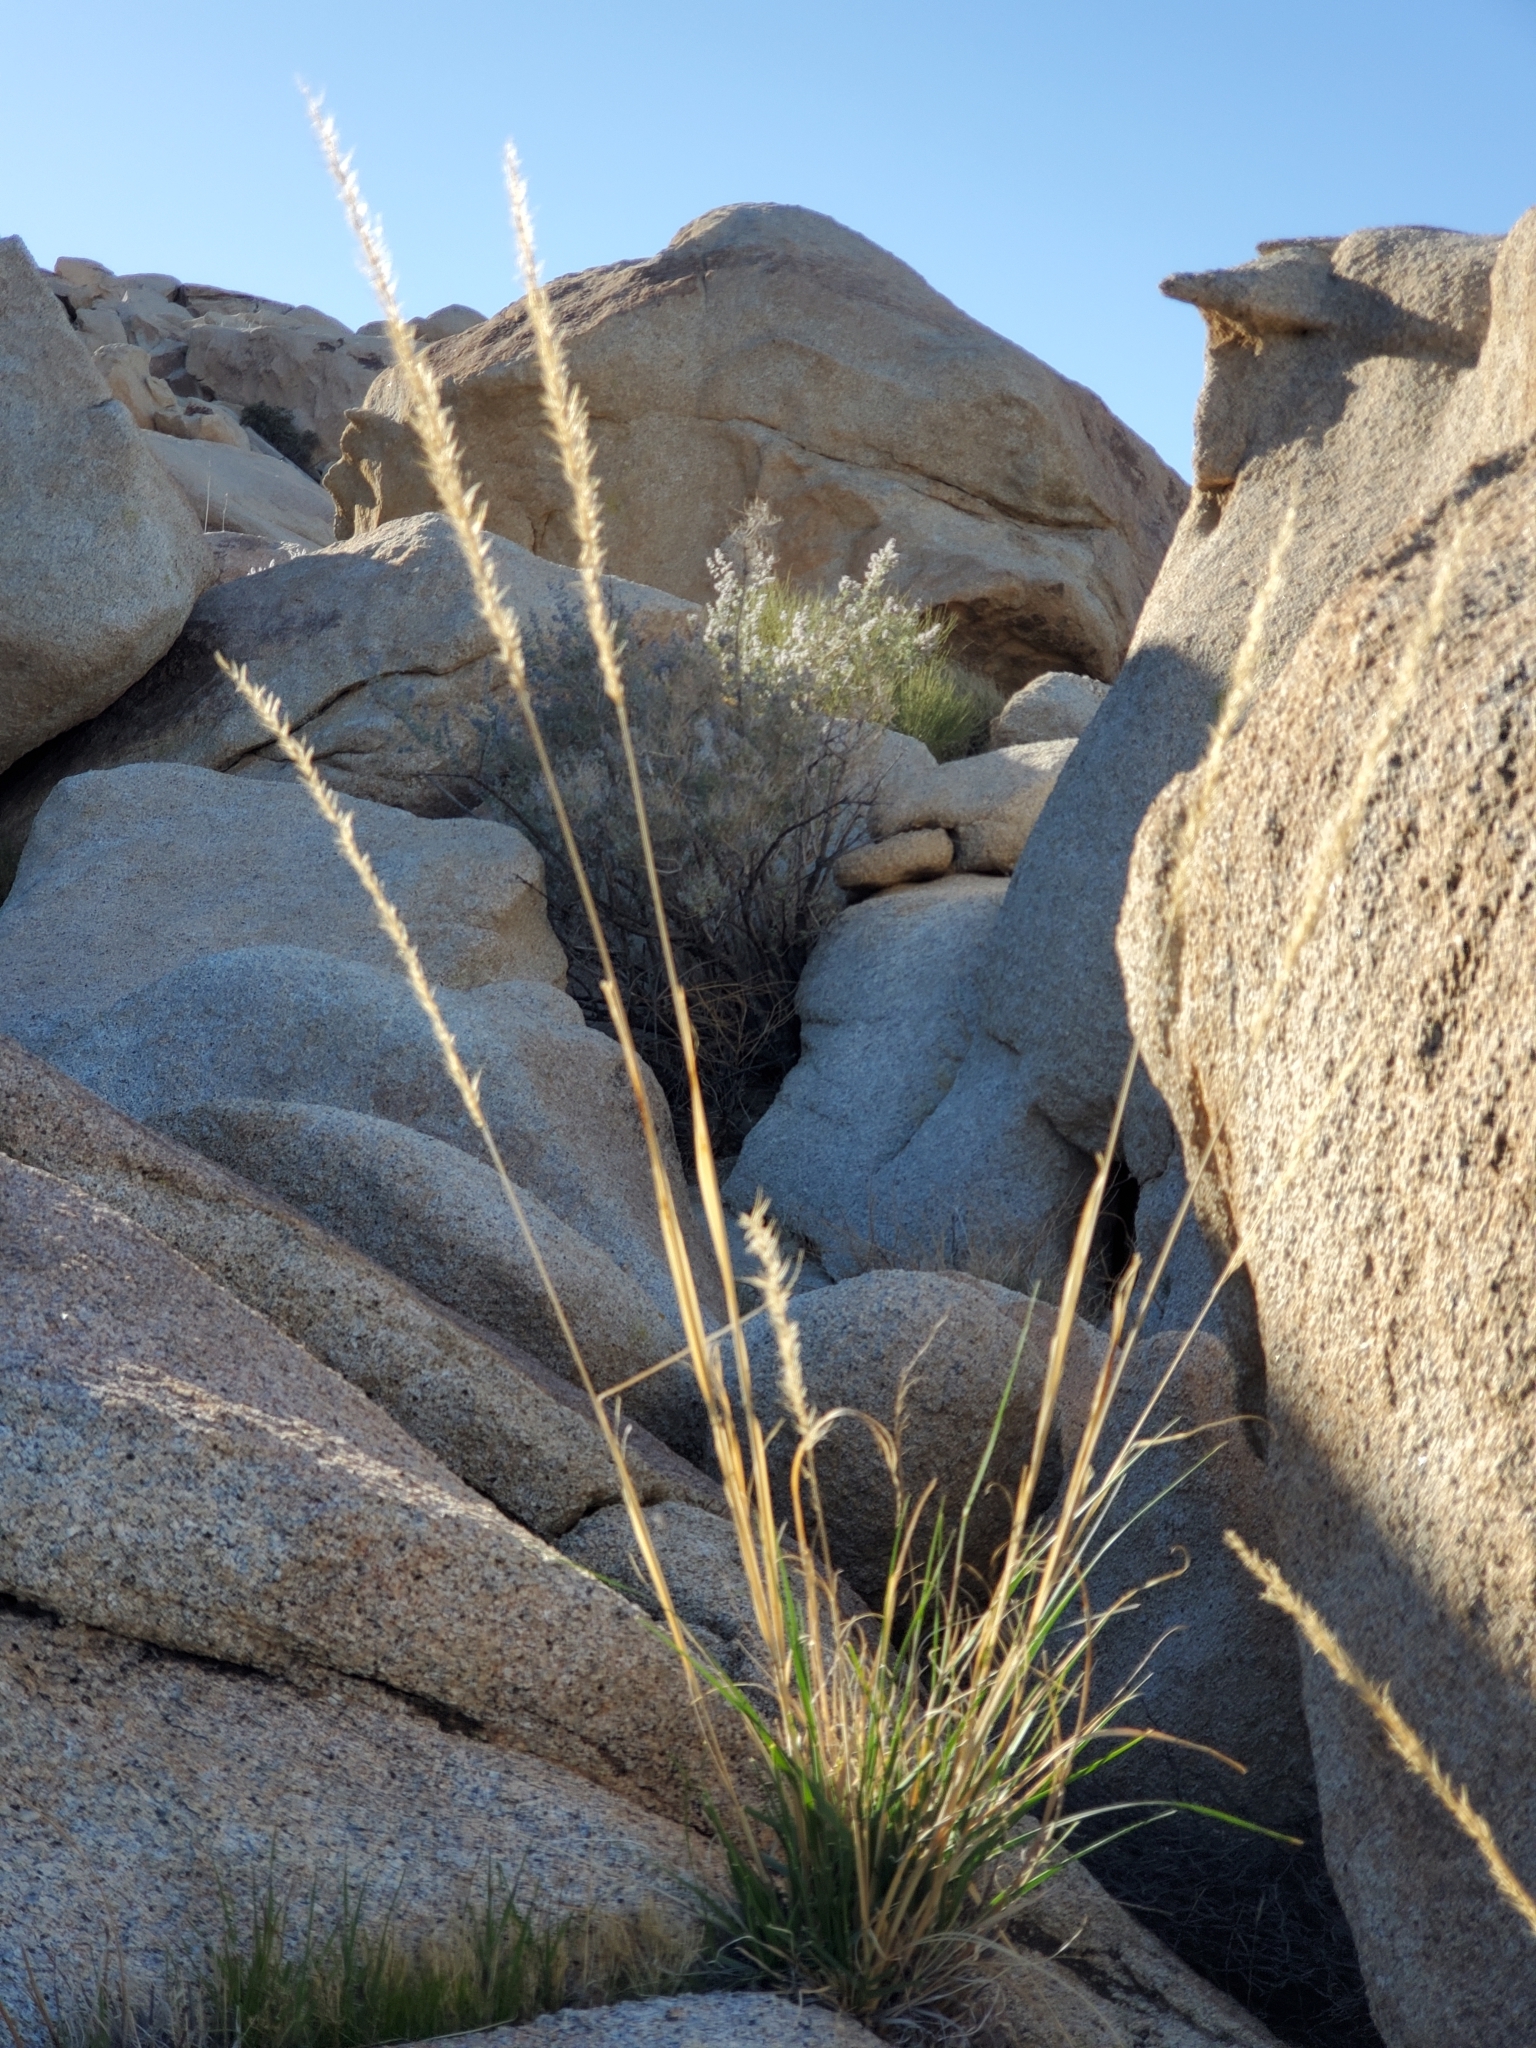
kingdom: Plantae
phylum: Tracheophyta
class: Liliopsida
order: Poales
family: Poaceae
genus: Pappostipa
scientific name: Pappostipa speciosa
